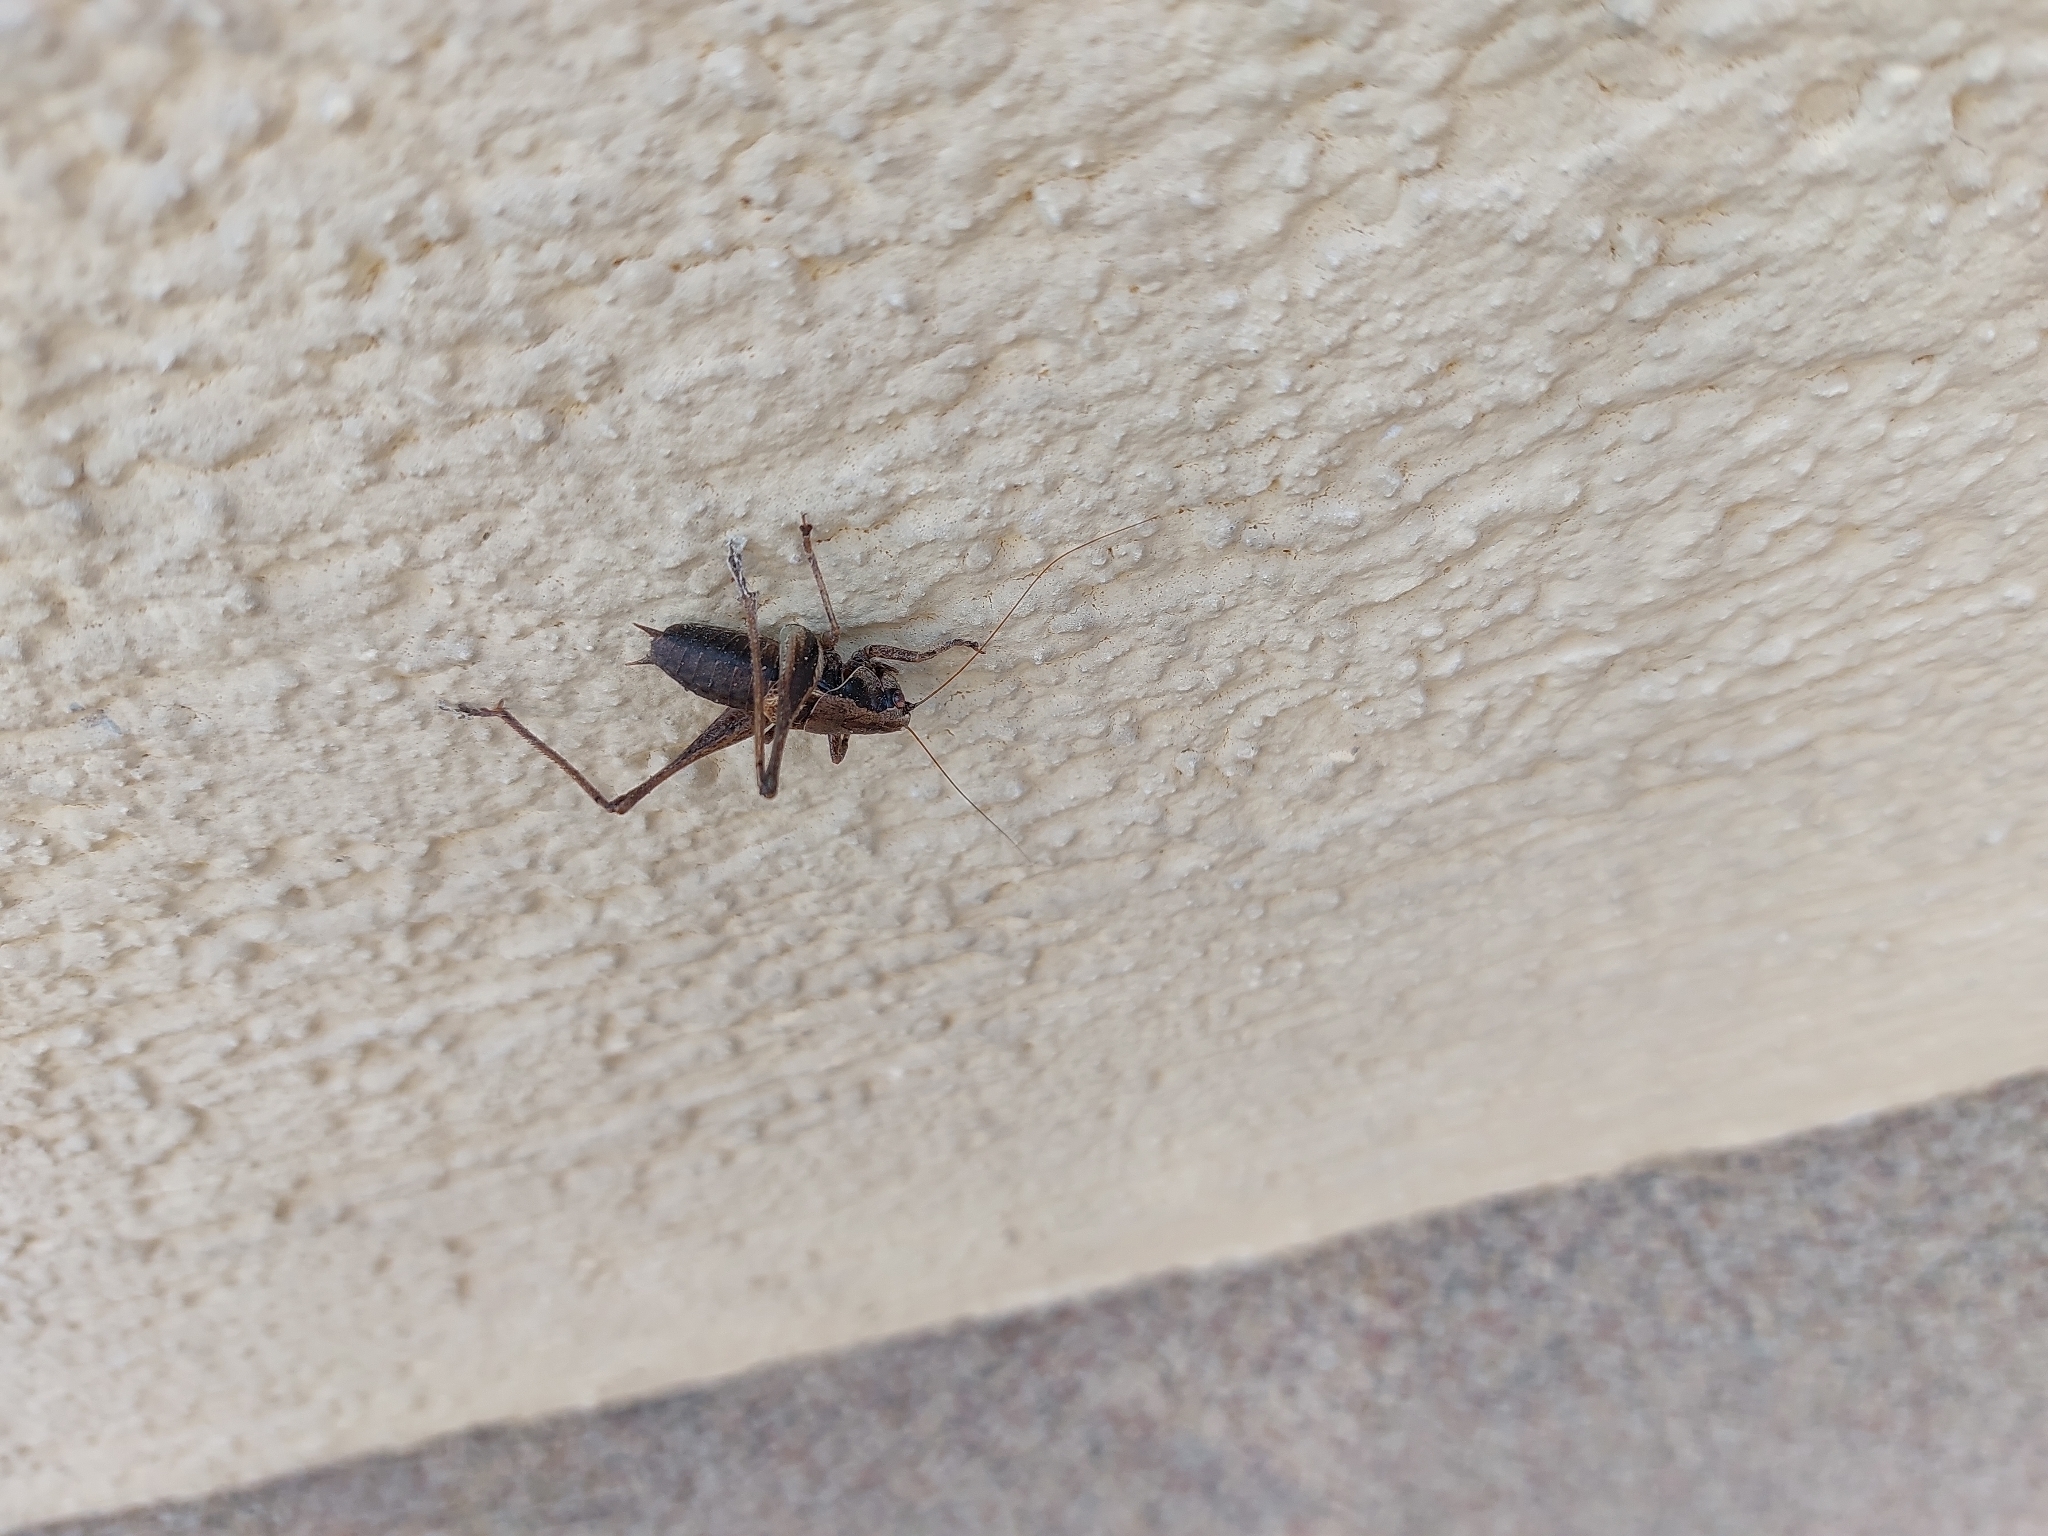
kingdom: Animalia
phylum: Arthropoda
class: Insecta
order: Orthoptera
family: Tettigoniidae
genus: Pholidoptera
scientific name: Pholidoptera griseoaptera
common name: Dark bush-cricket
